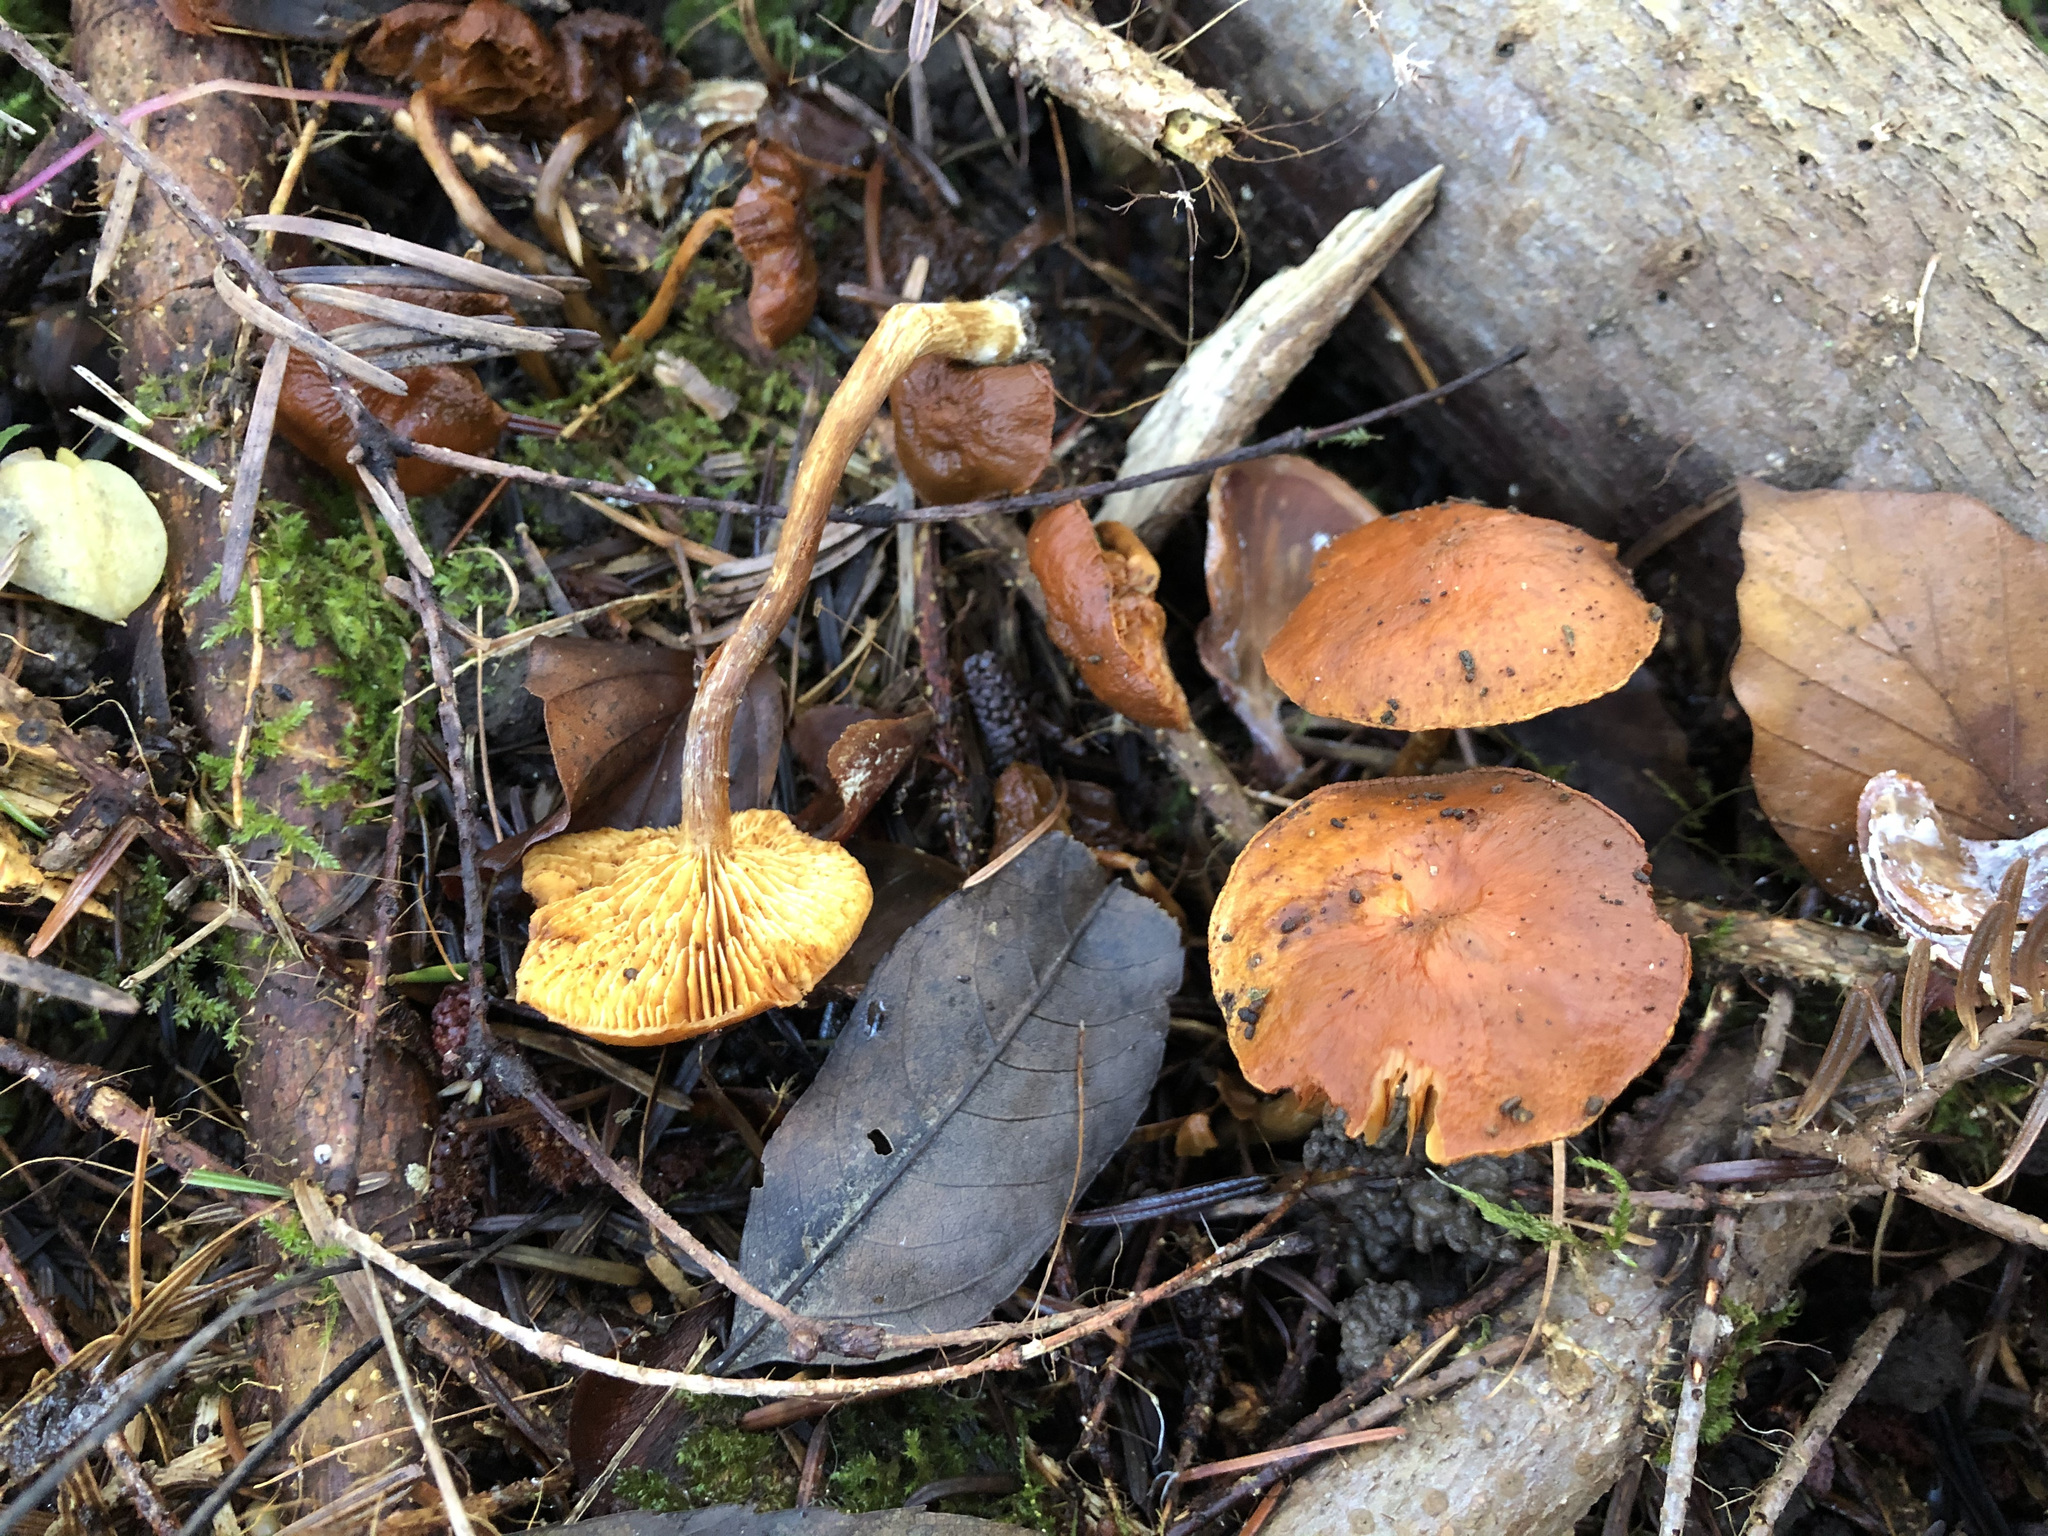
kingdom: Fungi
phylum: Basidiomycota
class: Agaricomycetes
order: Agaricales
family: Hymenogastraceae
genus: Gymnopilus
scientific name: Gymnopilus penetrans
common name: Common rustgill
